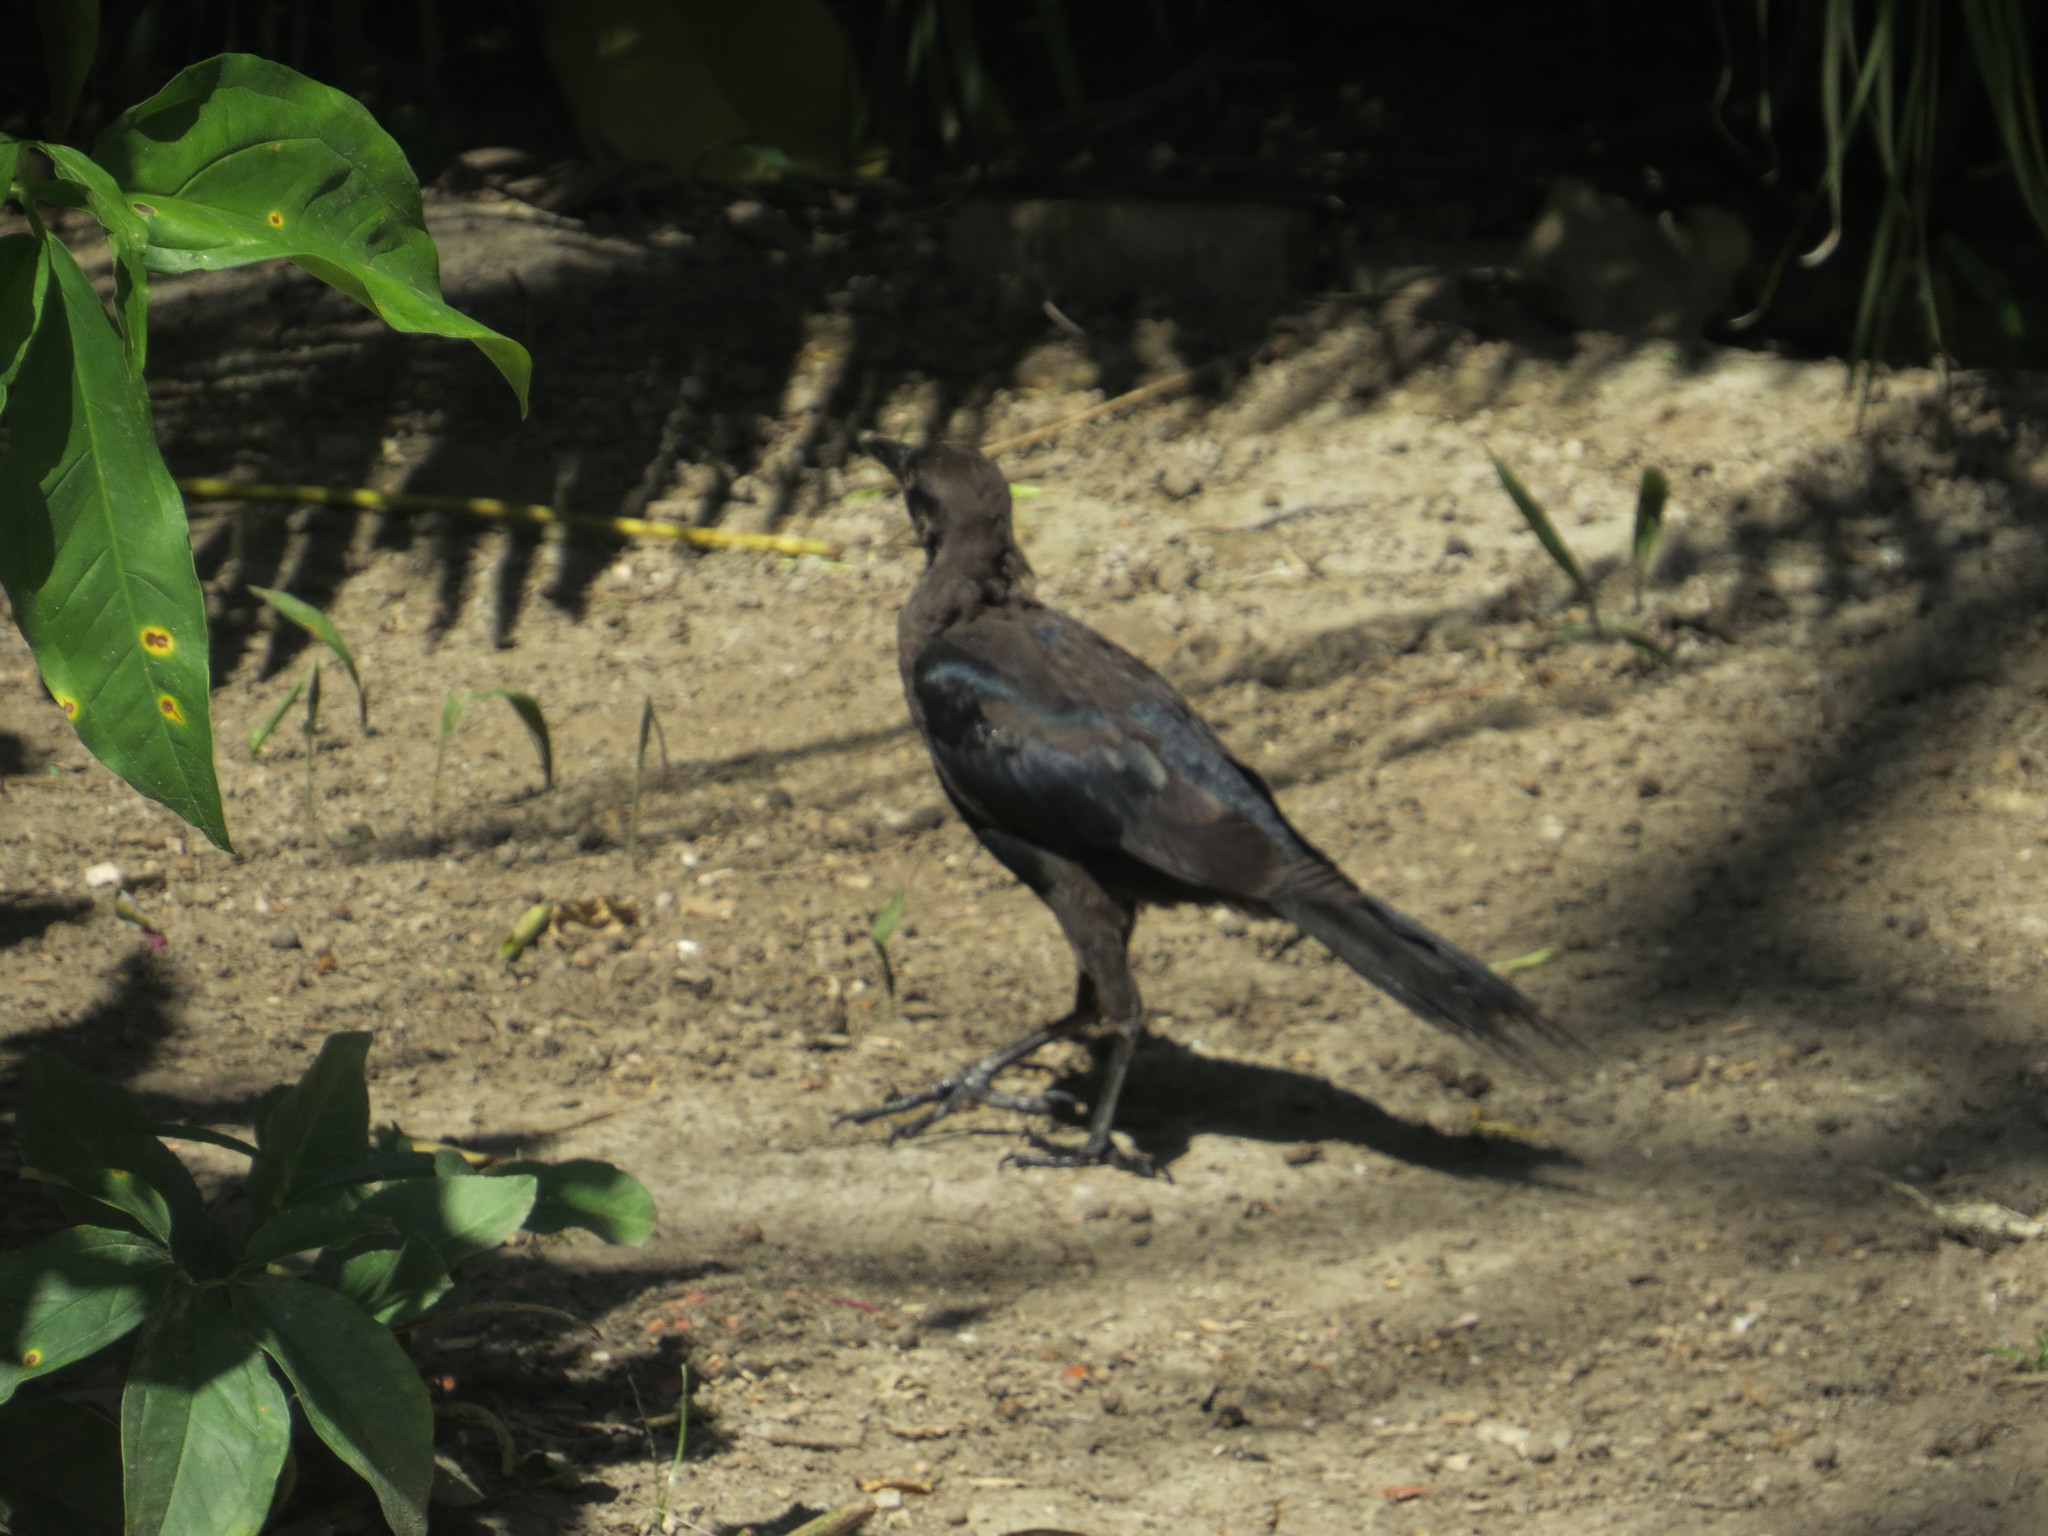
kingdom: Animalia
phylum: Chordata
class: Aves
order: Passeriformes
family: Icteridae
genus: Quiscalus
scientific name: Quiscalus mexicanus
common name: Great-tailed grackle
